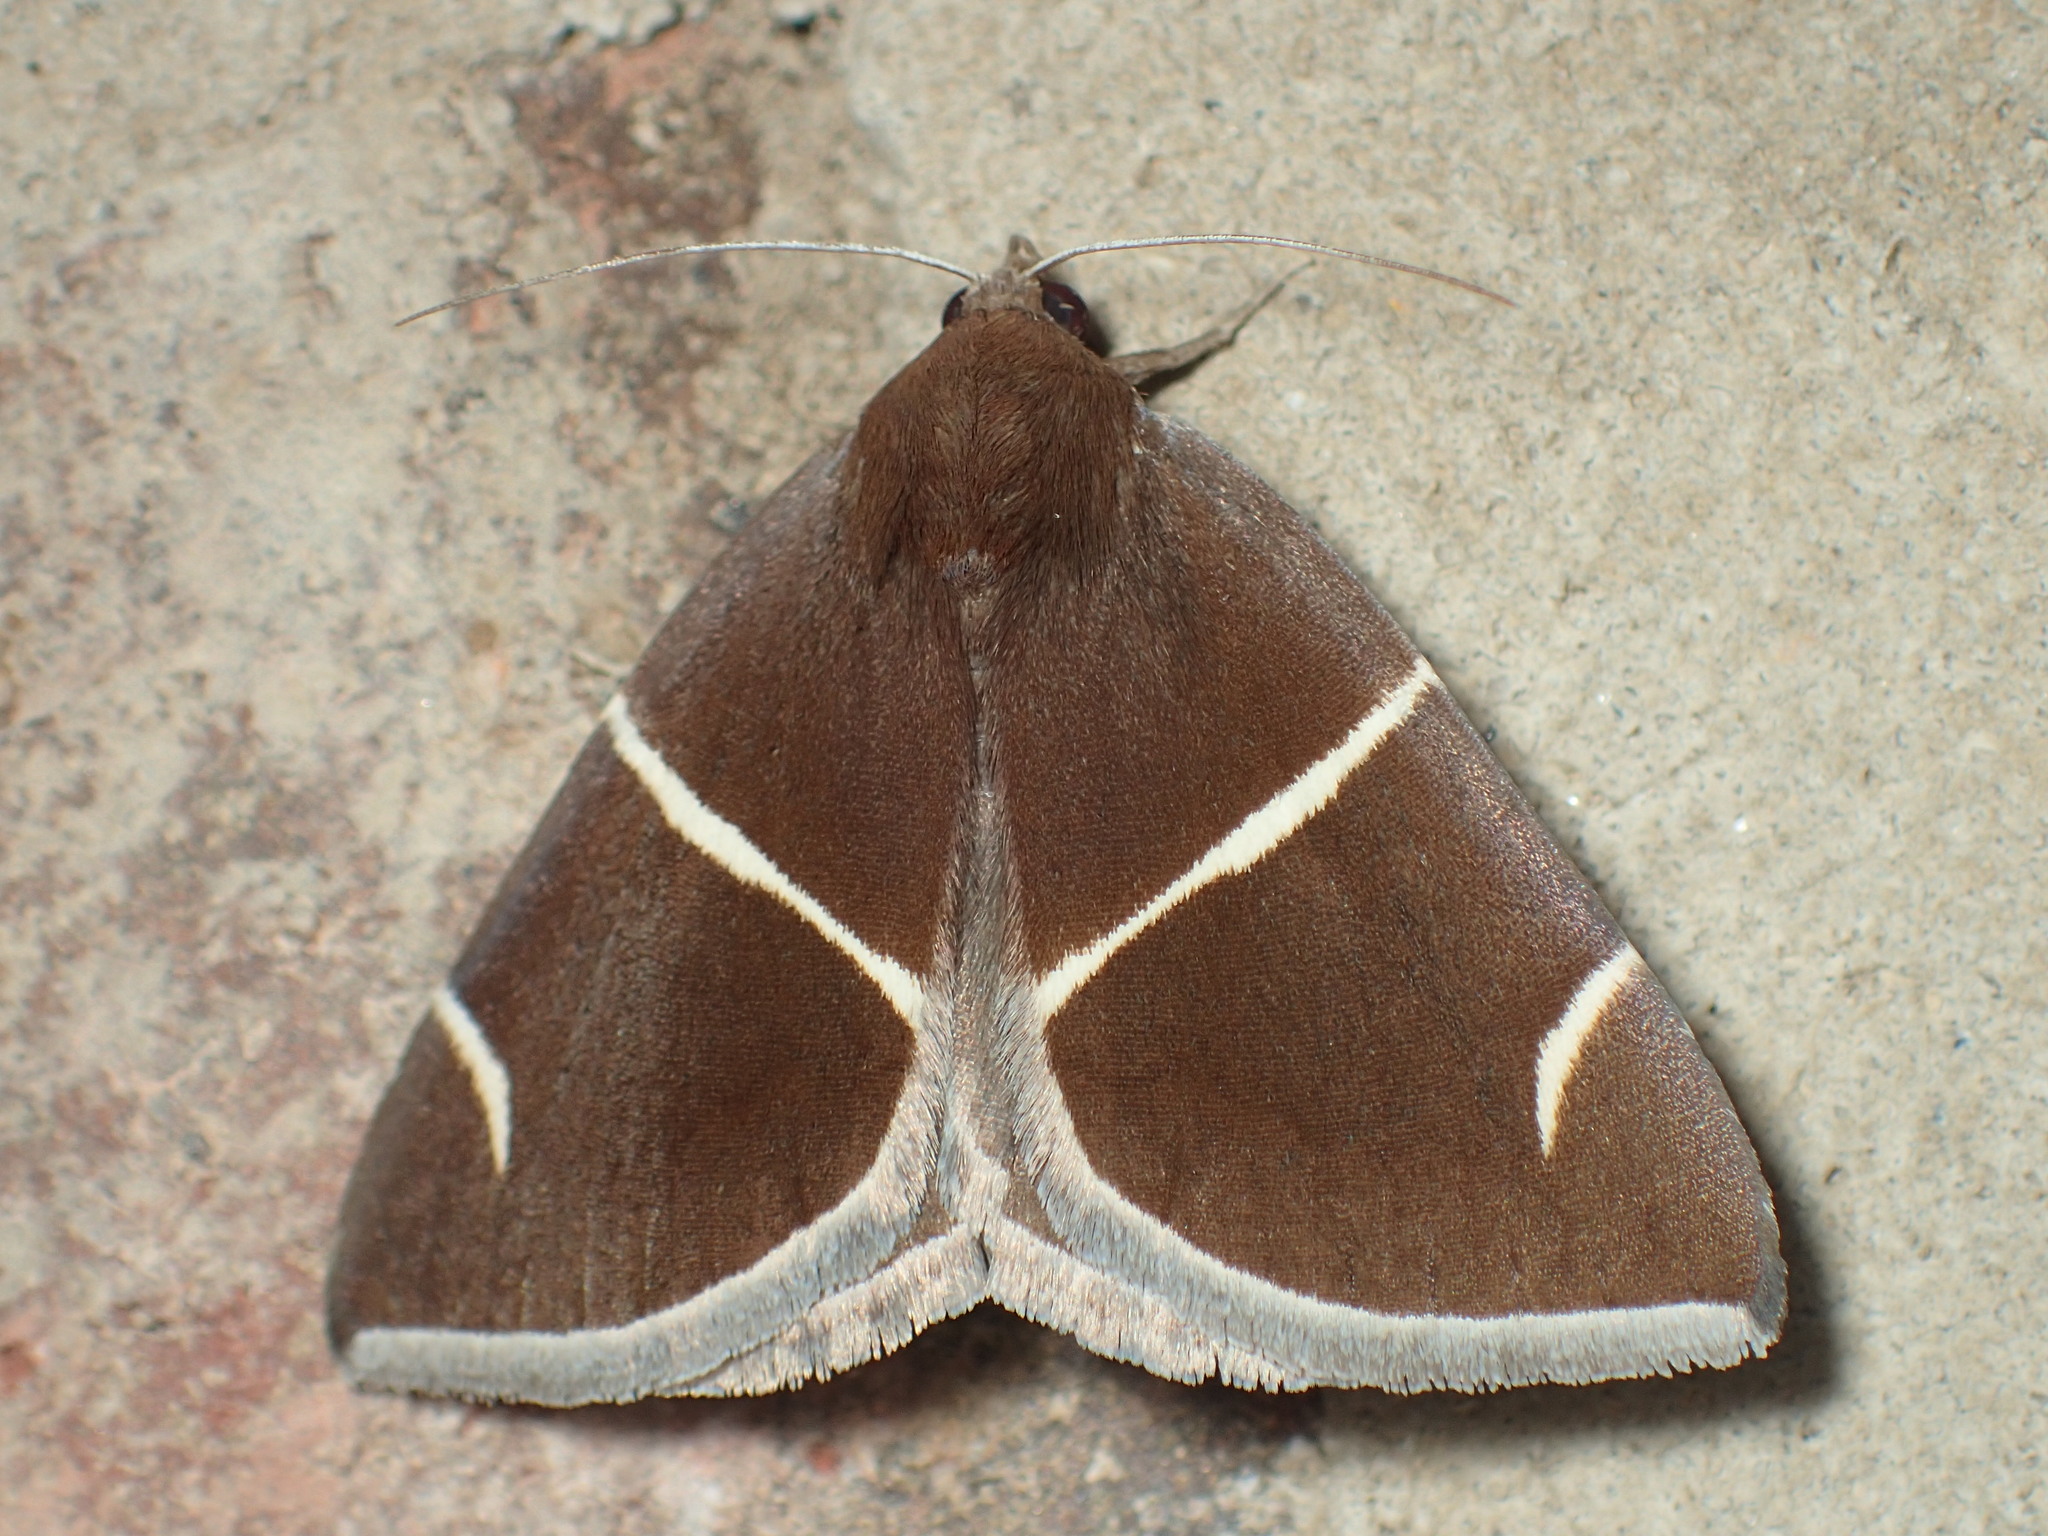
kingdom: Animalia
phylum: Arthropoda
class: Insecta
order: Lepidoptera
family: Erebidae
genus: Argyrostrotis
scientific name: Argyrostrotis anilis
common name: Short-lined chocolate
